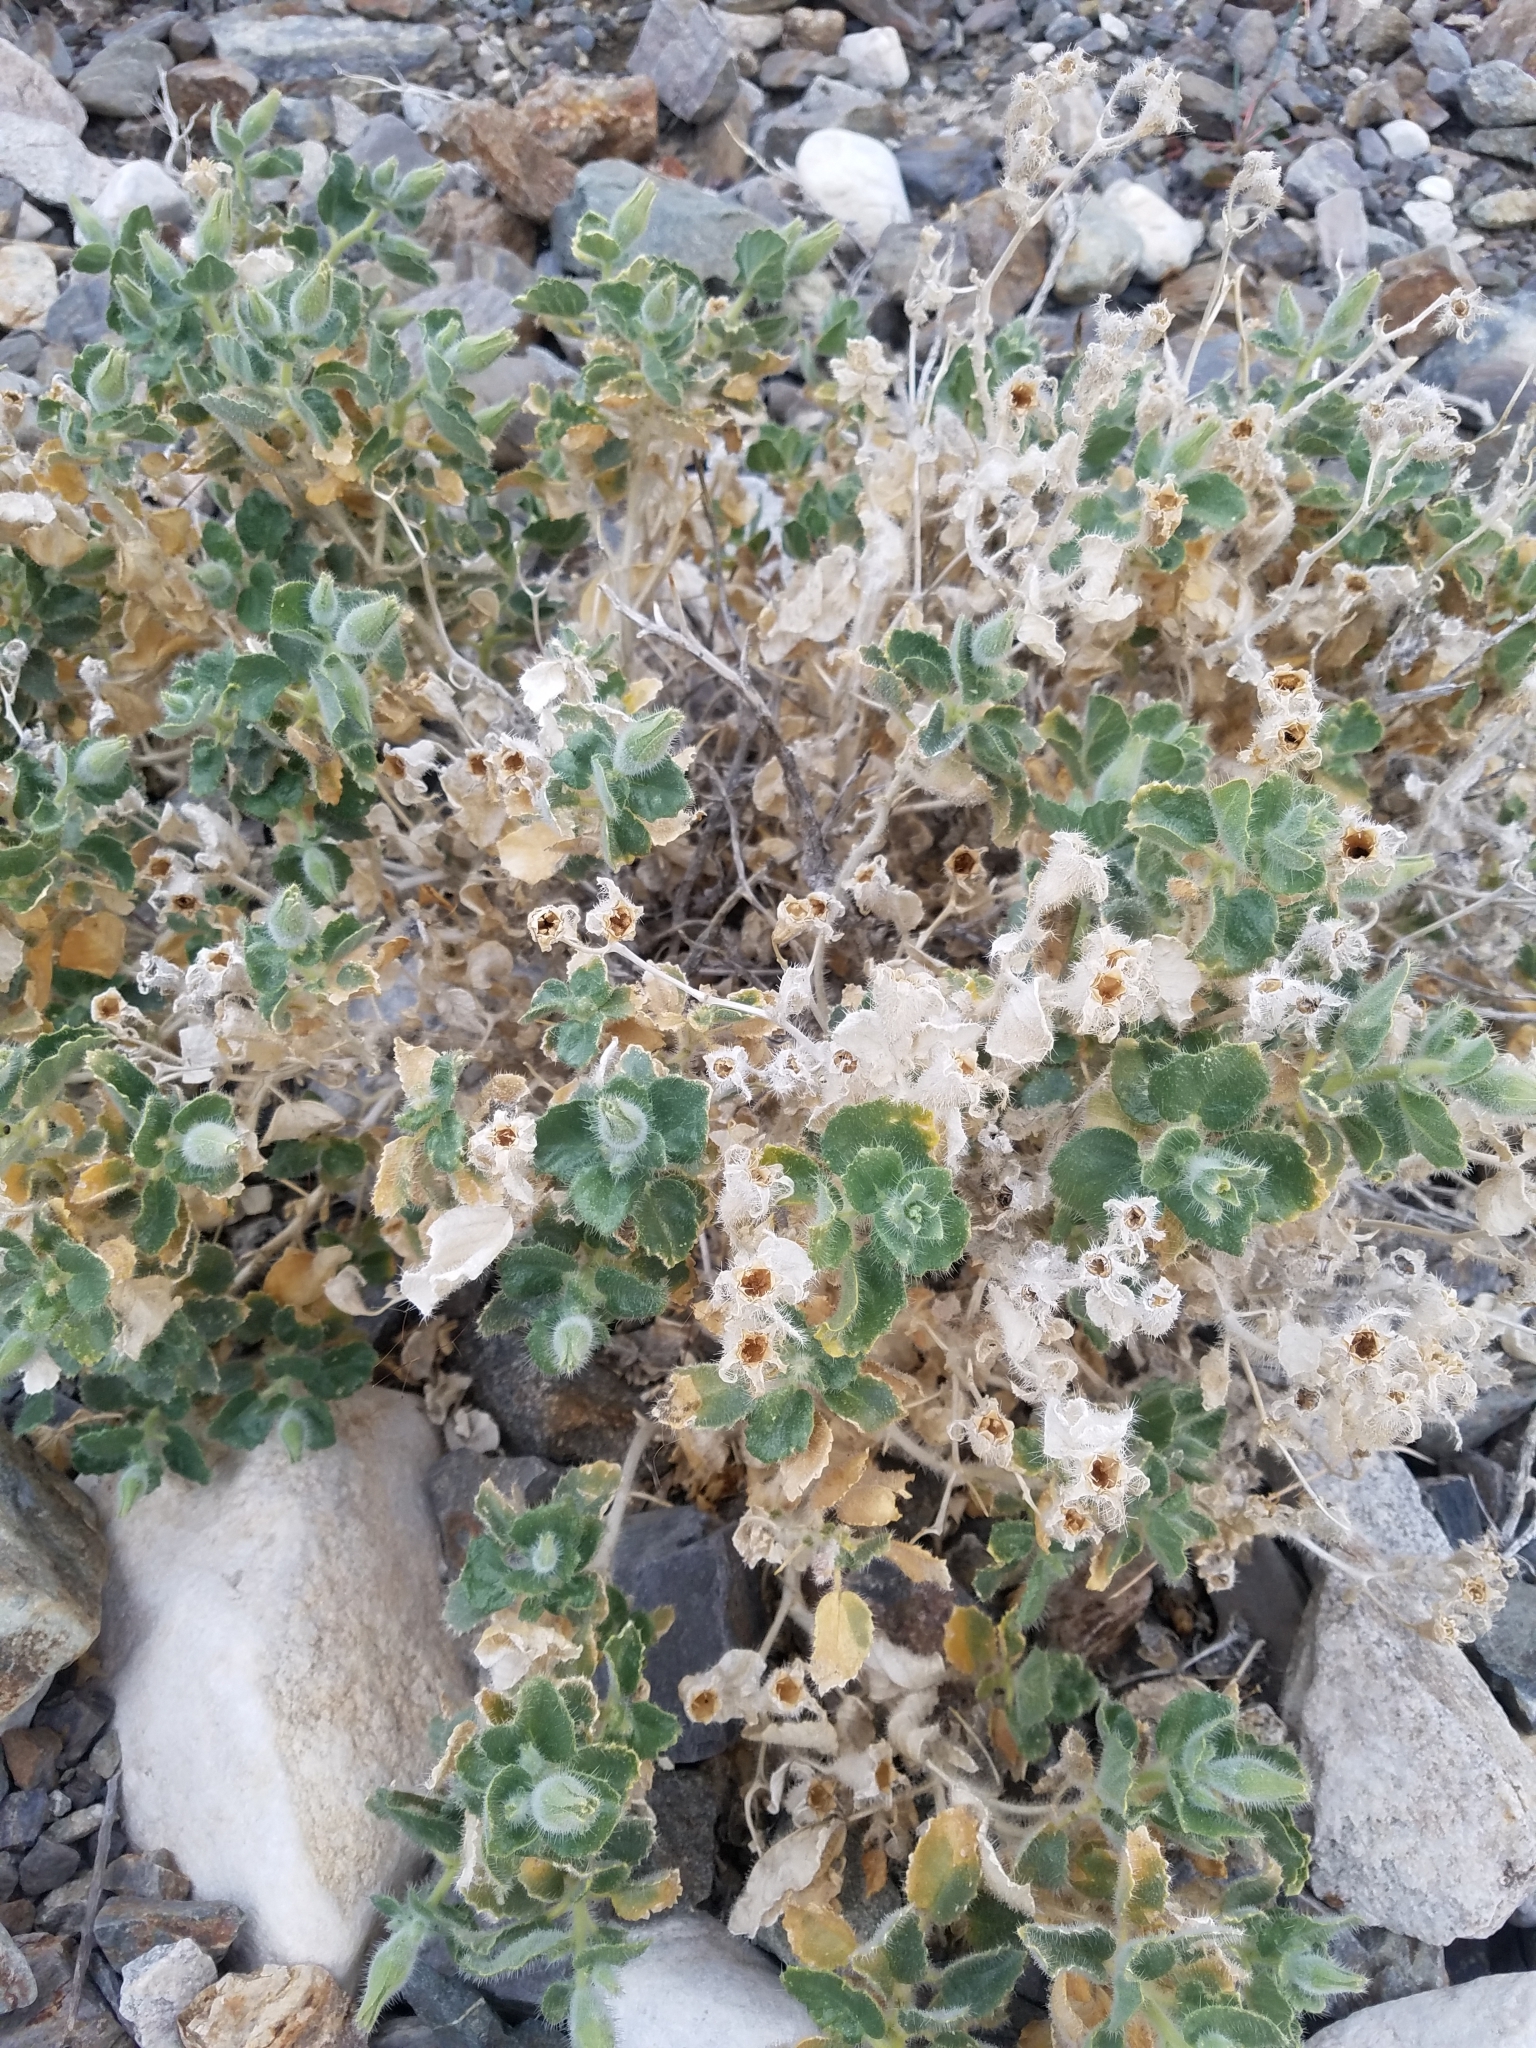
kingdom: Plantae
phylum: Tracheophyta
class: Magnoliopsida
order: Cornales
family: Loasaceae
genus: Eucnide
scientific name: Eucnide urens
